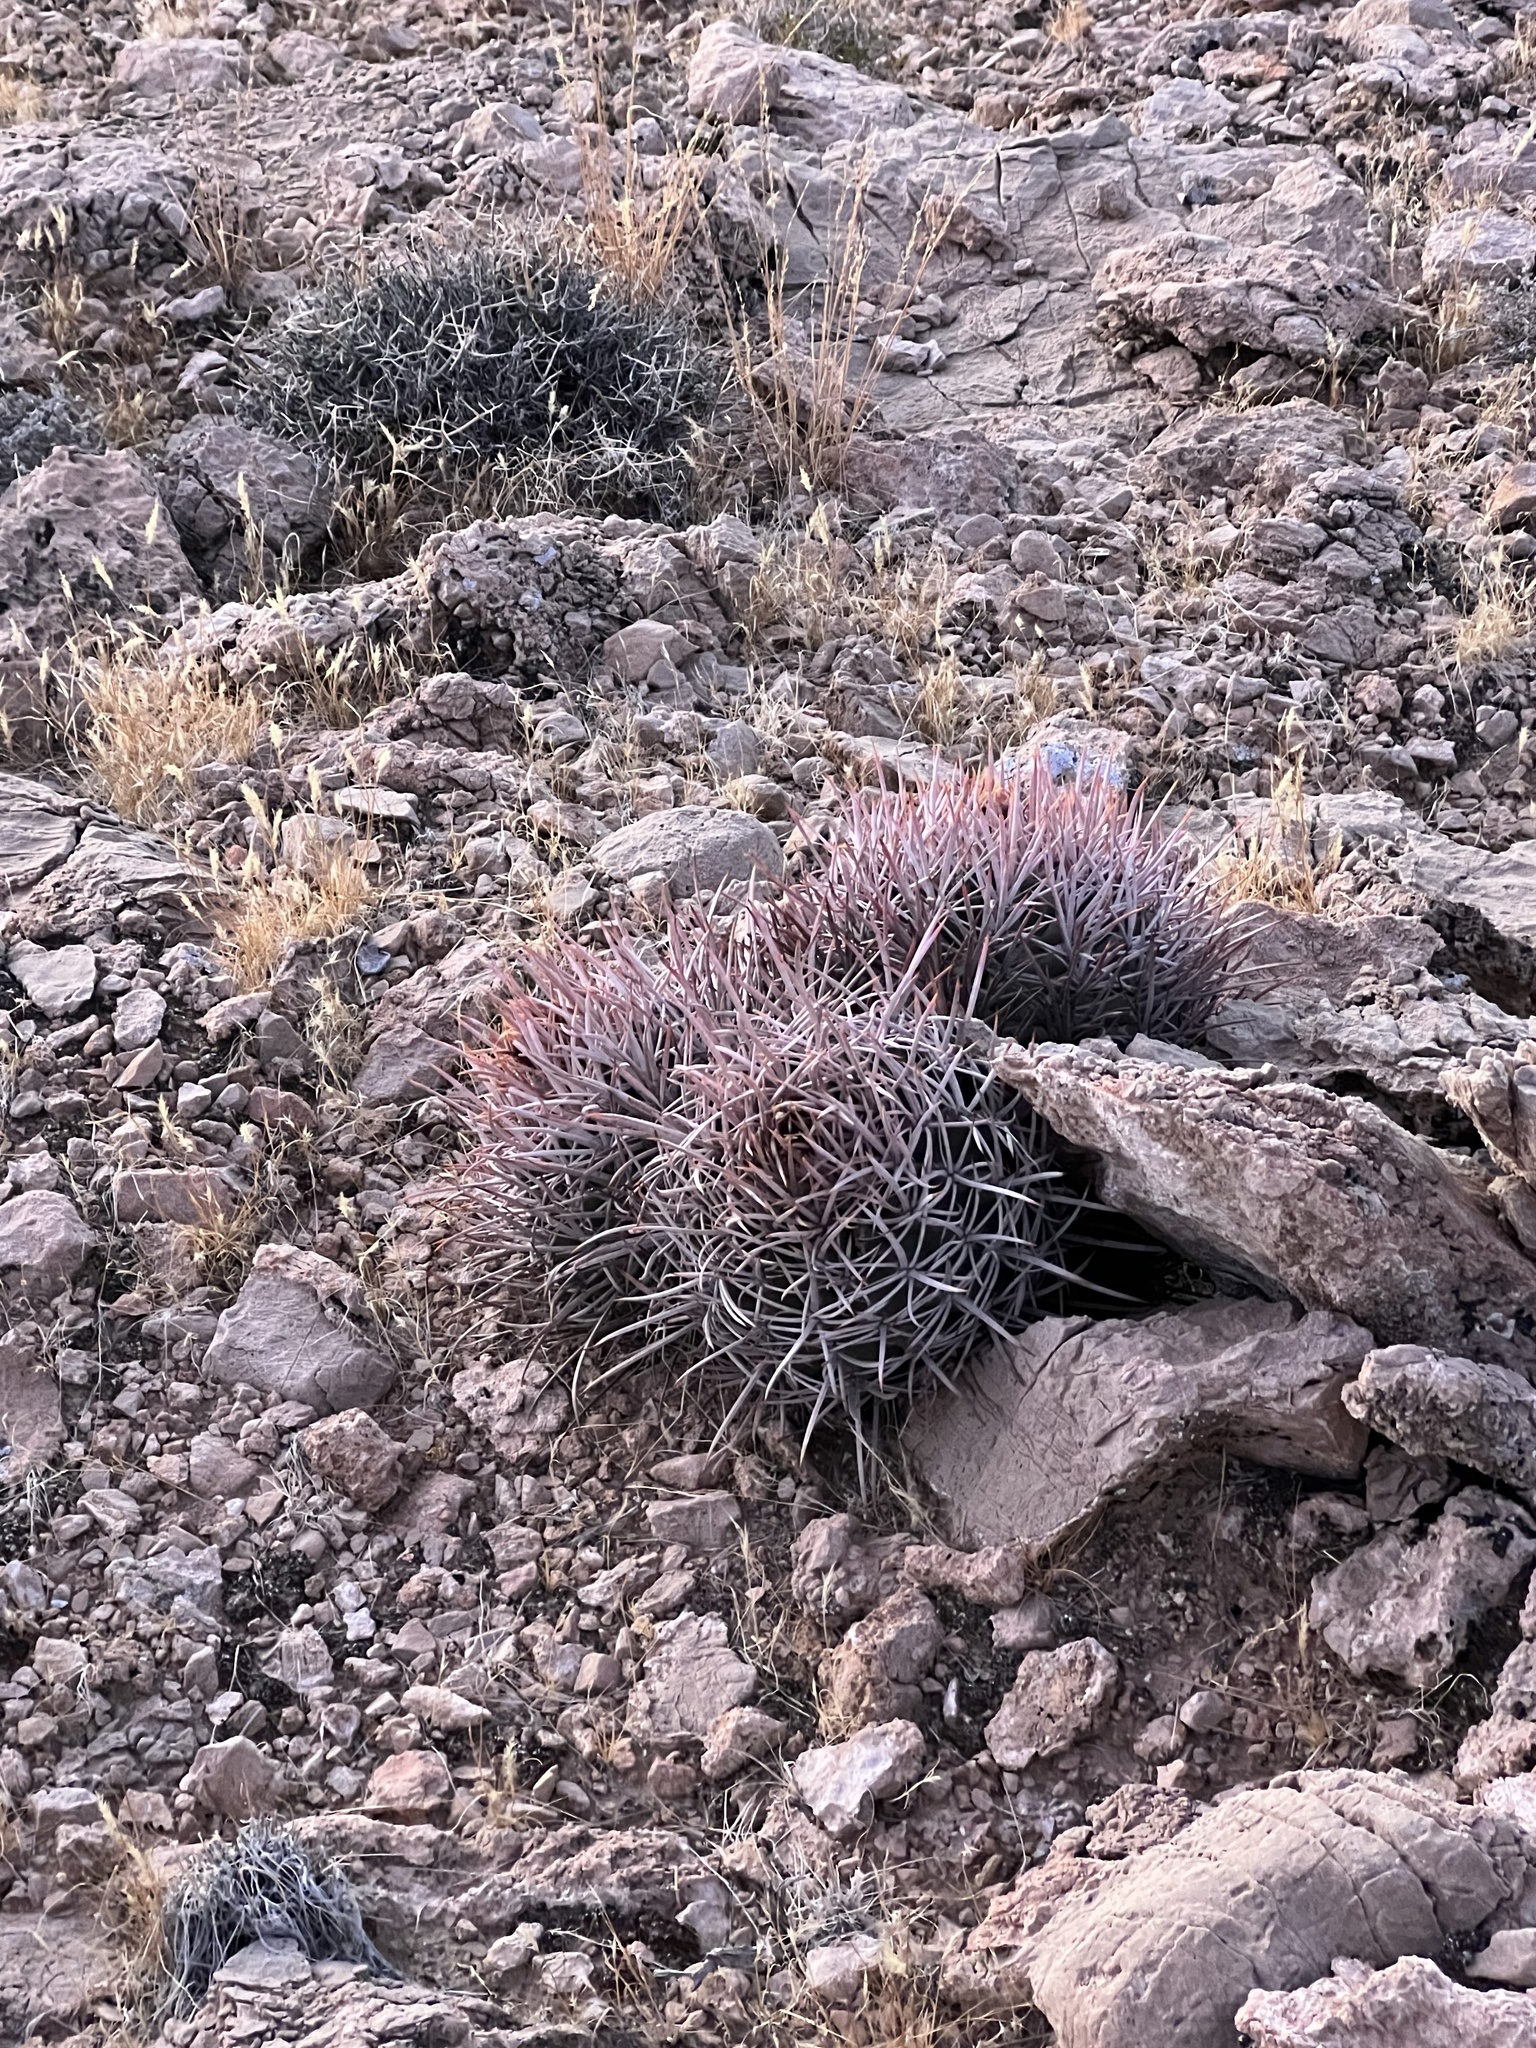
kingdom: Plantae
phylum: Tracheophyta
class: Magnoliopsida
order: Caryophyllales
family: Cactaceae
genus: Echinocactus
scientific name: Echinocactus polycephalus
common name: Cottontop cactus
